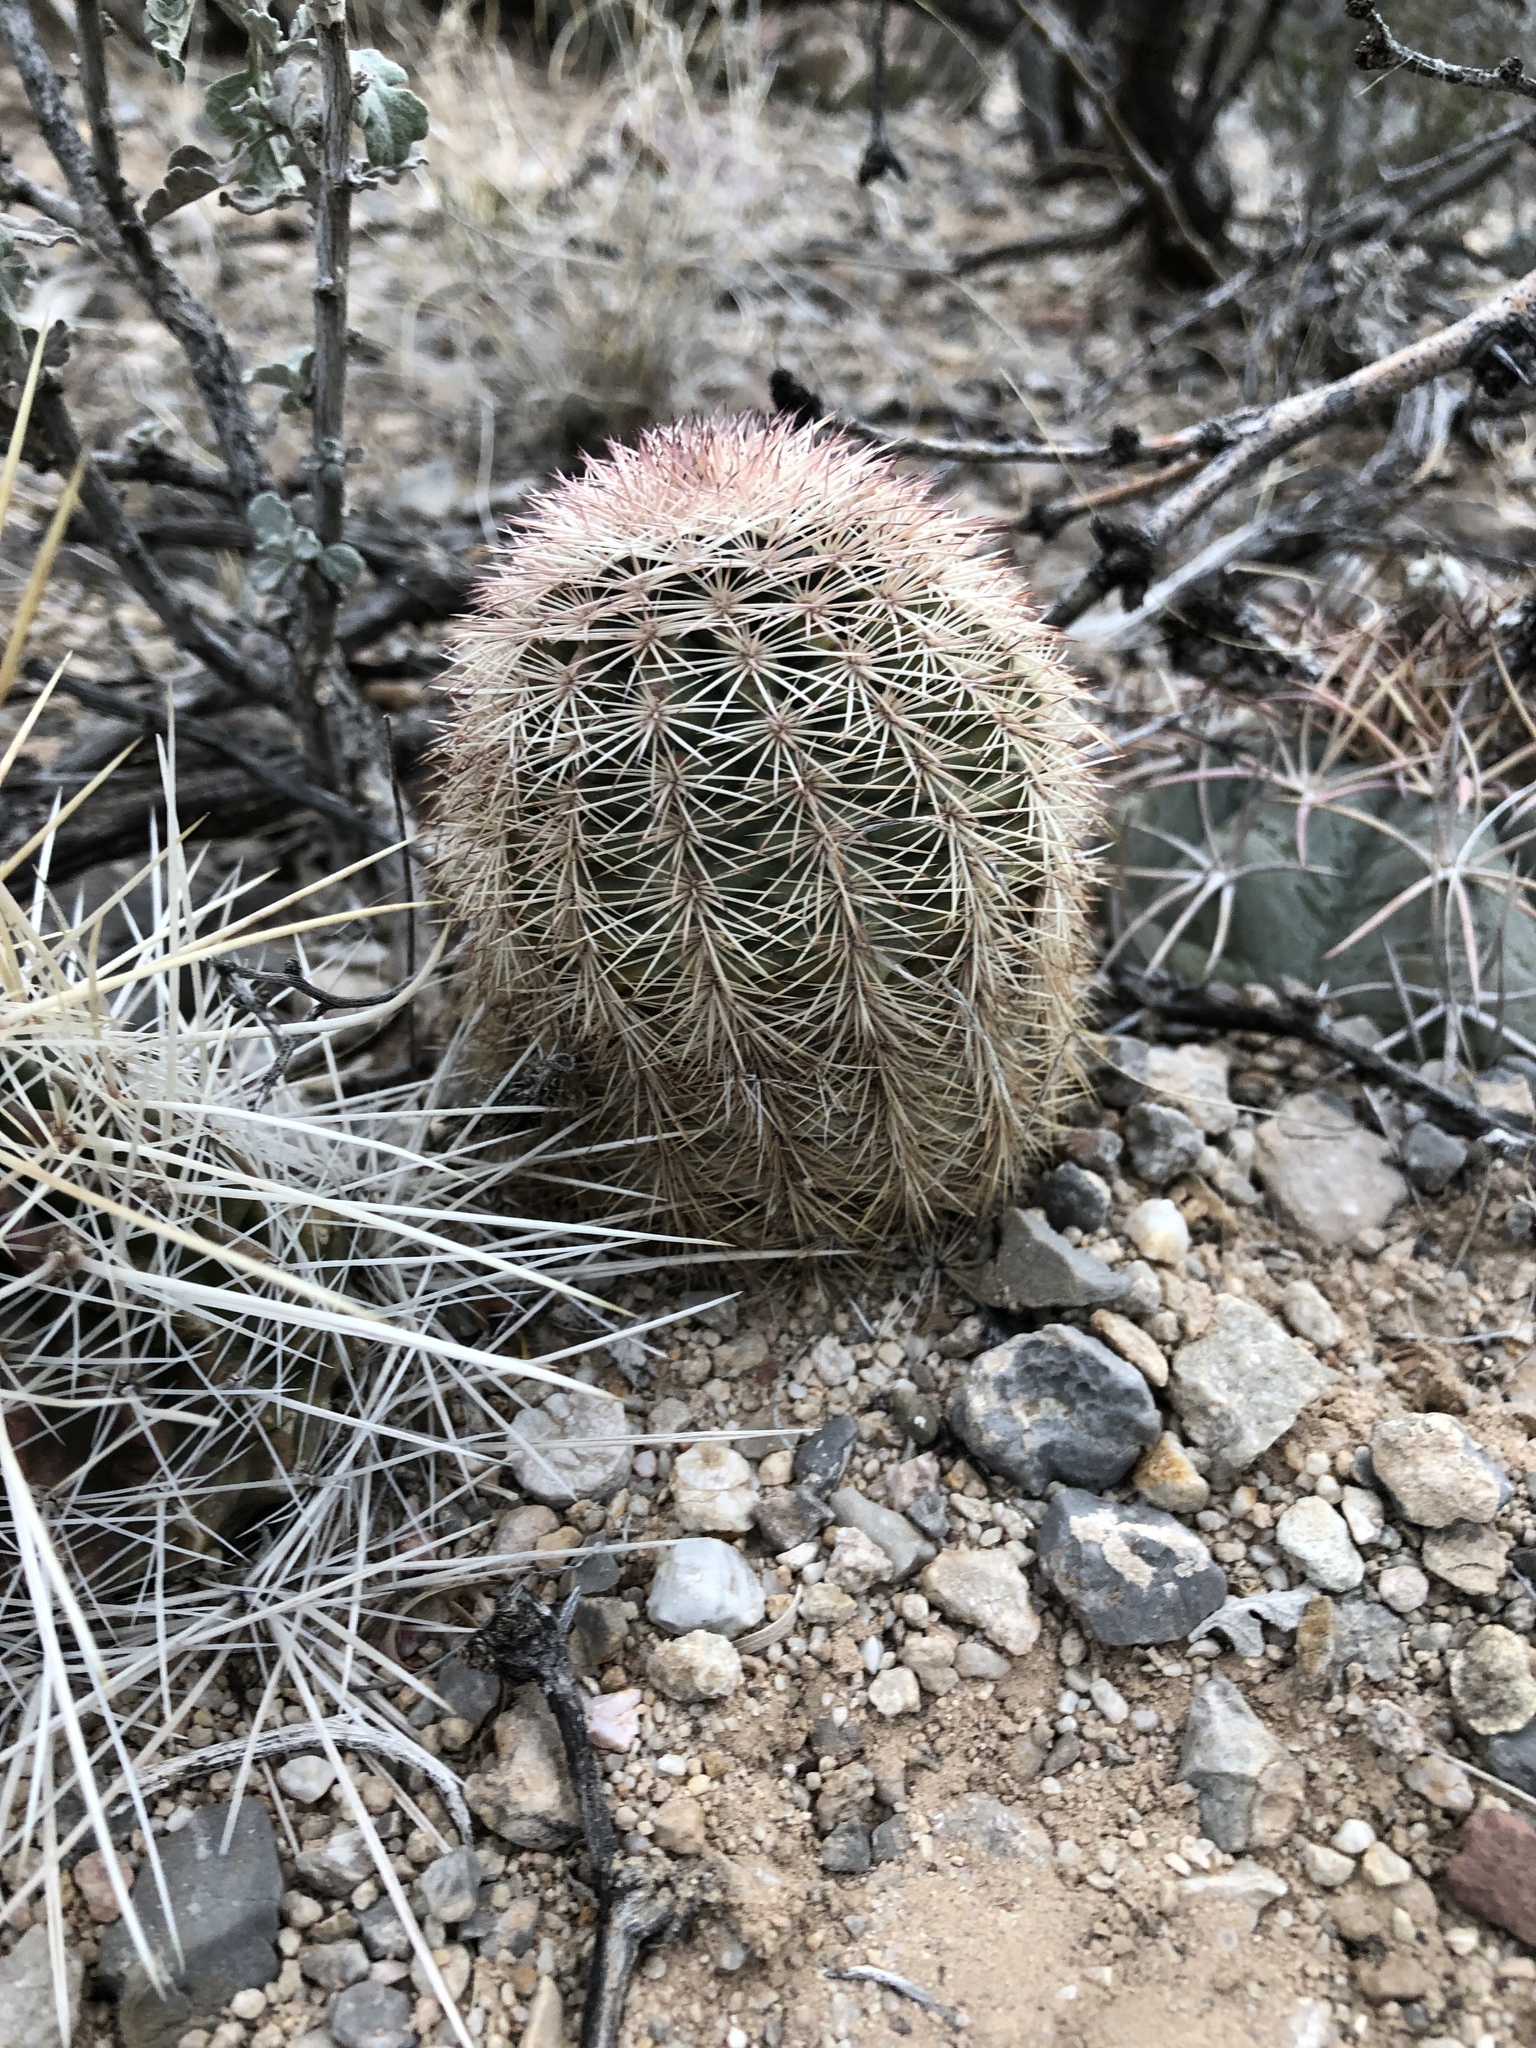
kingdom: Plantae
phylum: Tracheophyta
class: Magnoliopsida
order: Caryophyllales
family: Cactaceae
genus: Echinocereus
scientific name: Echinocereus dasyacanthus
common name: Spiny hedgehog cactus
